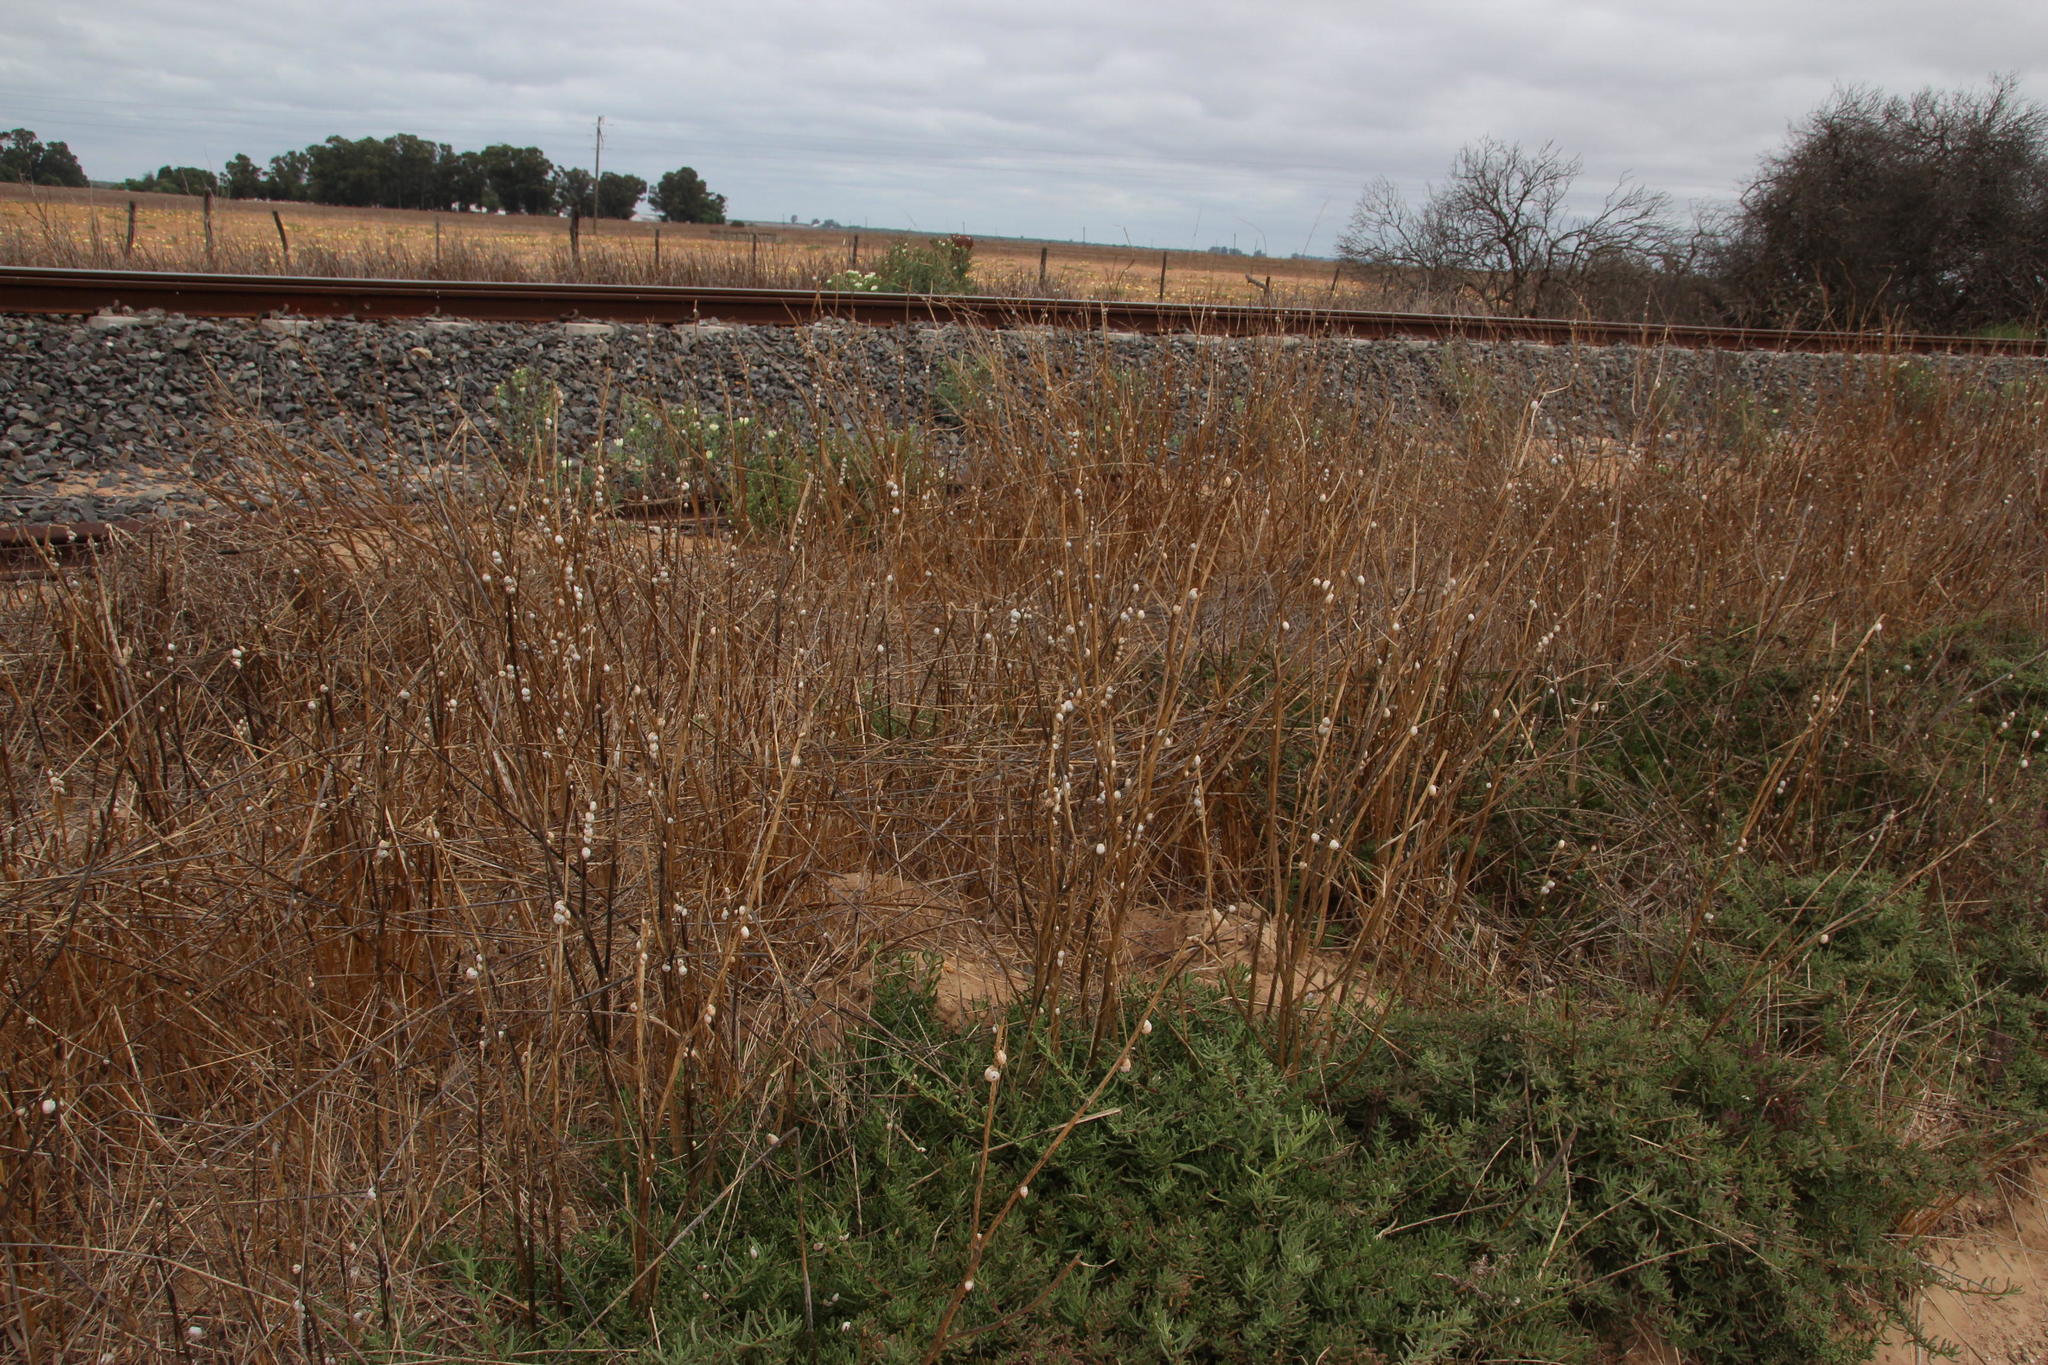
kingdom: Animalia
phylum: Mollusca
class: Gastropoda
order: Stylommatophora
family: Helicidae
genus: Theba
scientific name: Theba pisana
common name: White snail
